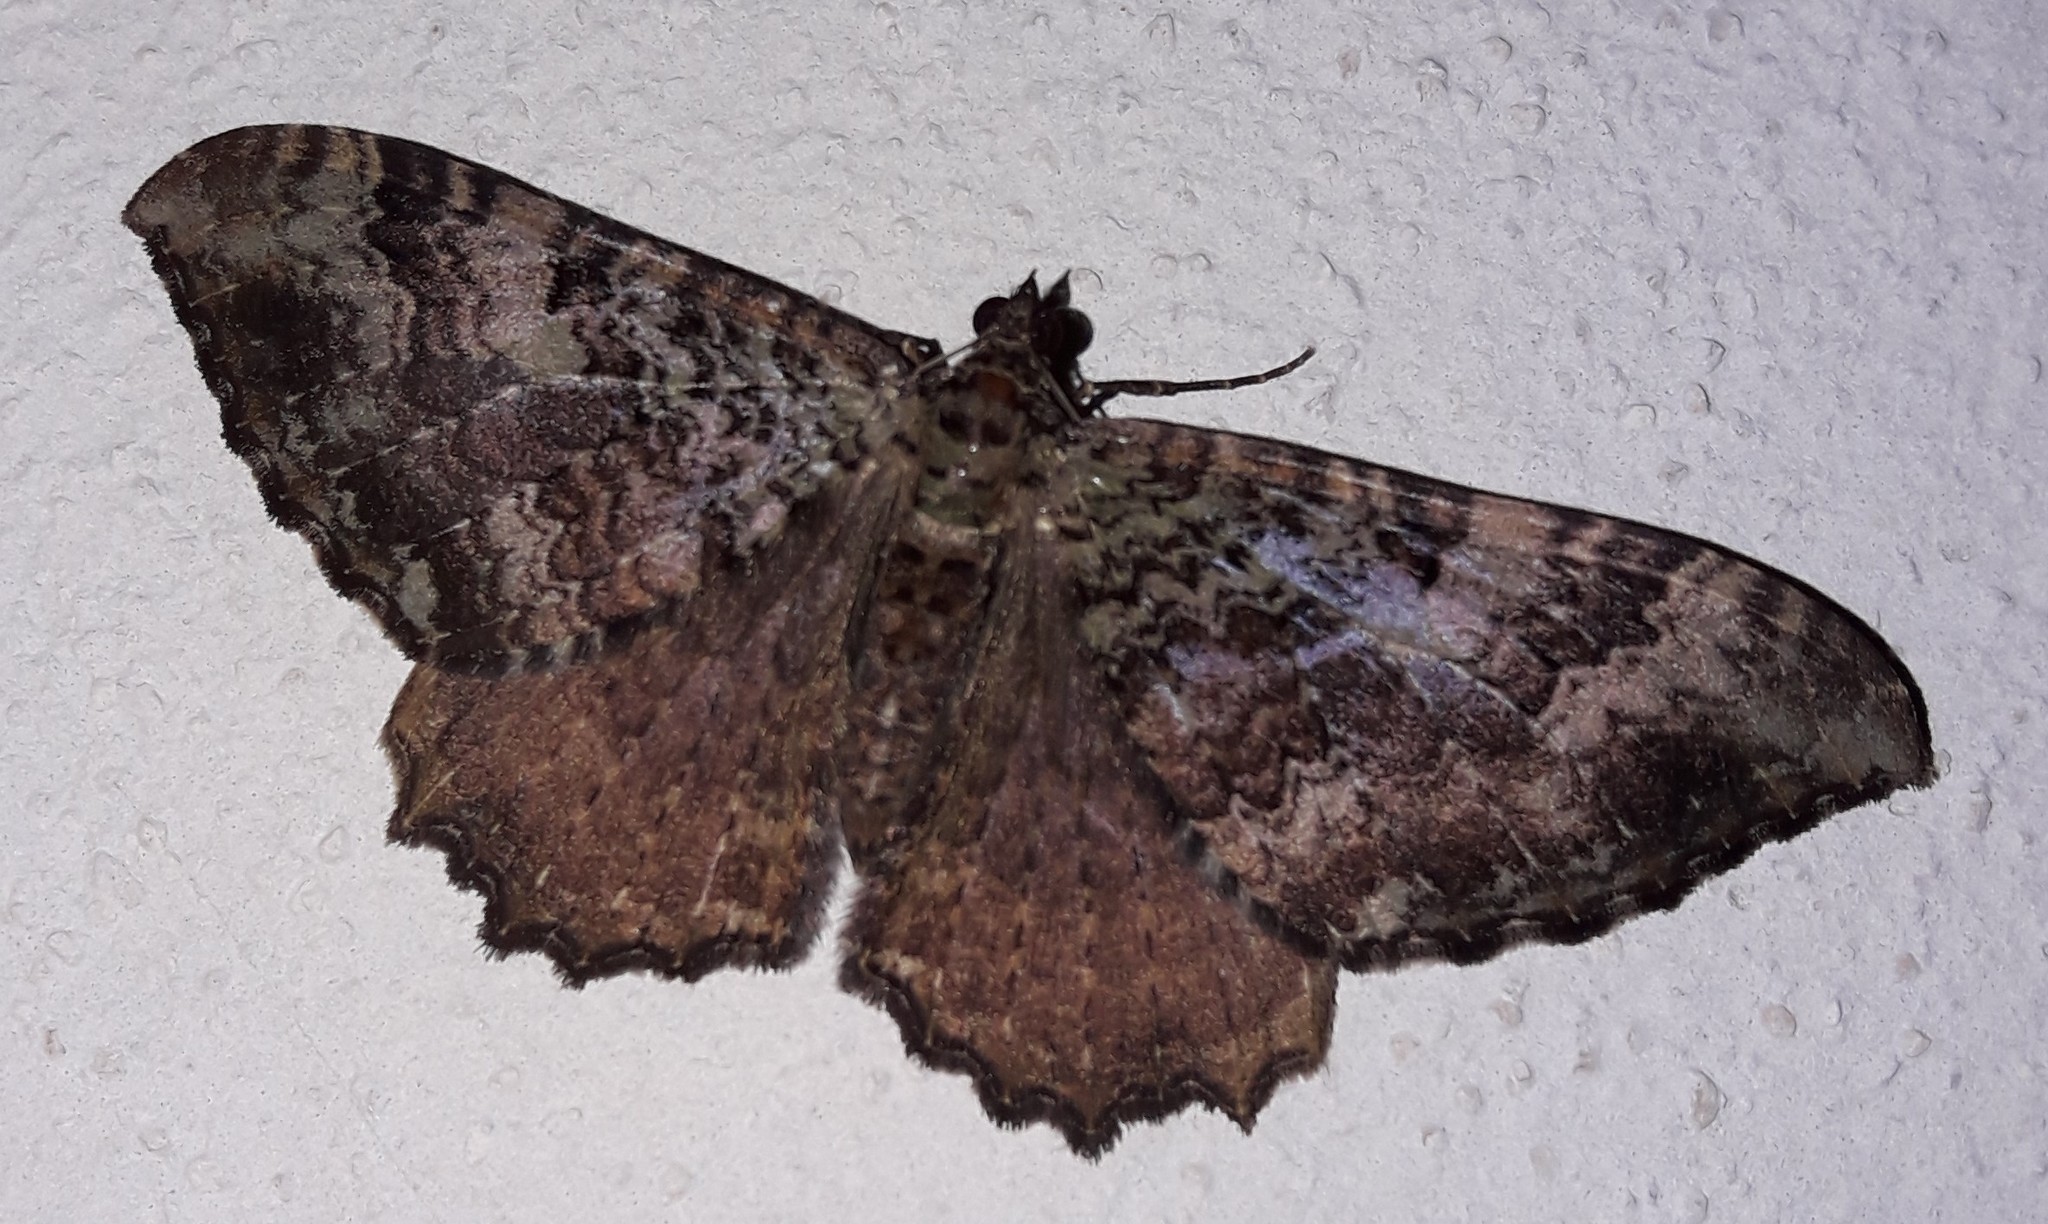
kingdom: Animalia
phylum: Arthropoda
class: Insecta
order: Lepidoptera
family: Geometridae
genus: Rheumaptera
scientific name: Rheumaptera
